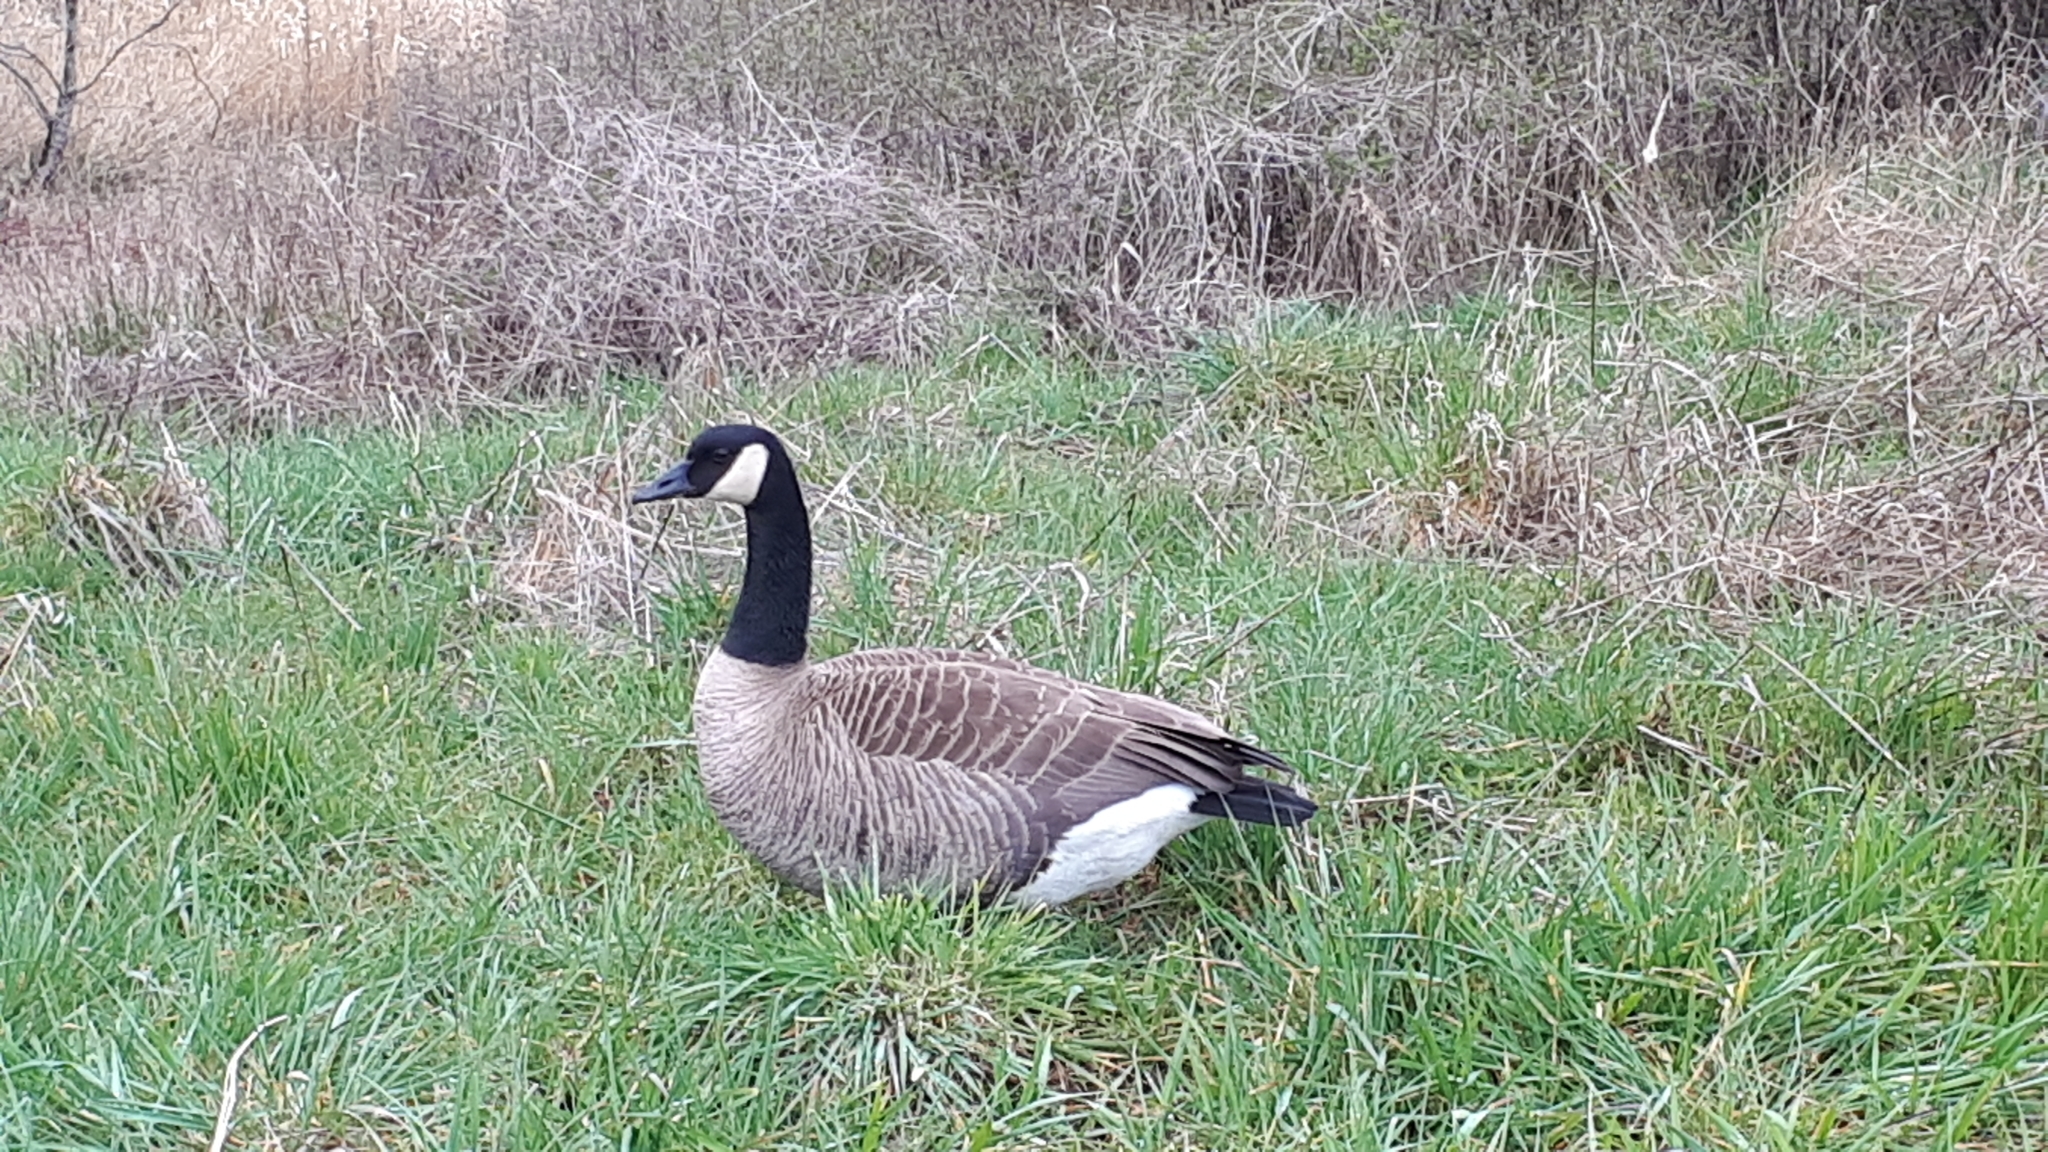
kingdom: Animalia
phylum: Chordata
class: Aves
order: Anseriformes
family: Anatidae
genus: Branta
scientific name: Branta canadensis
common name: Canada goose
